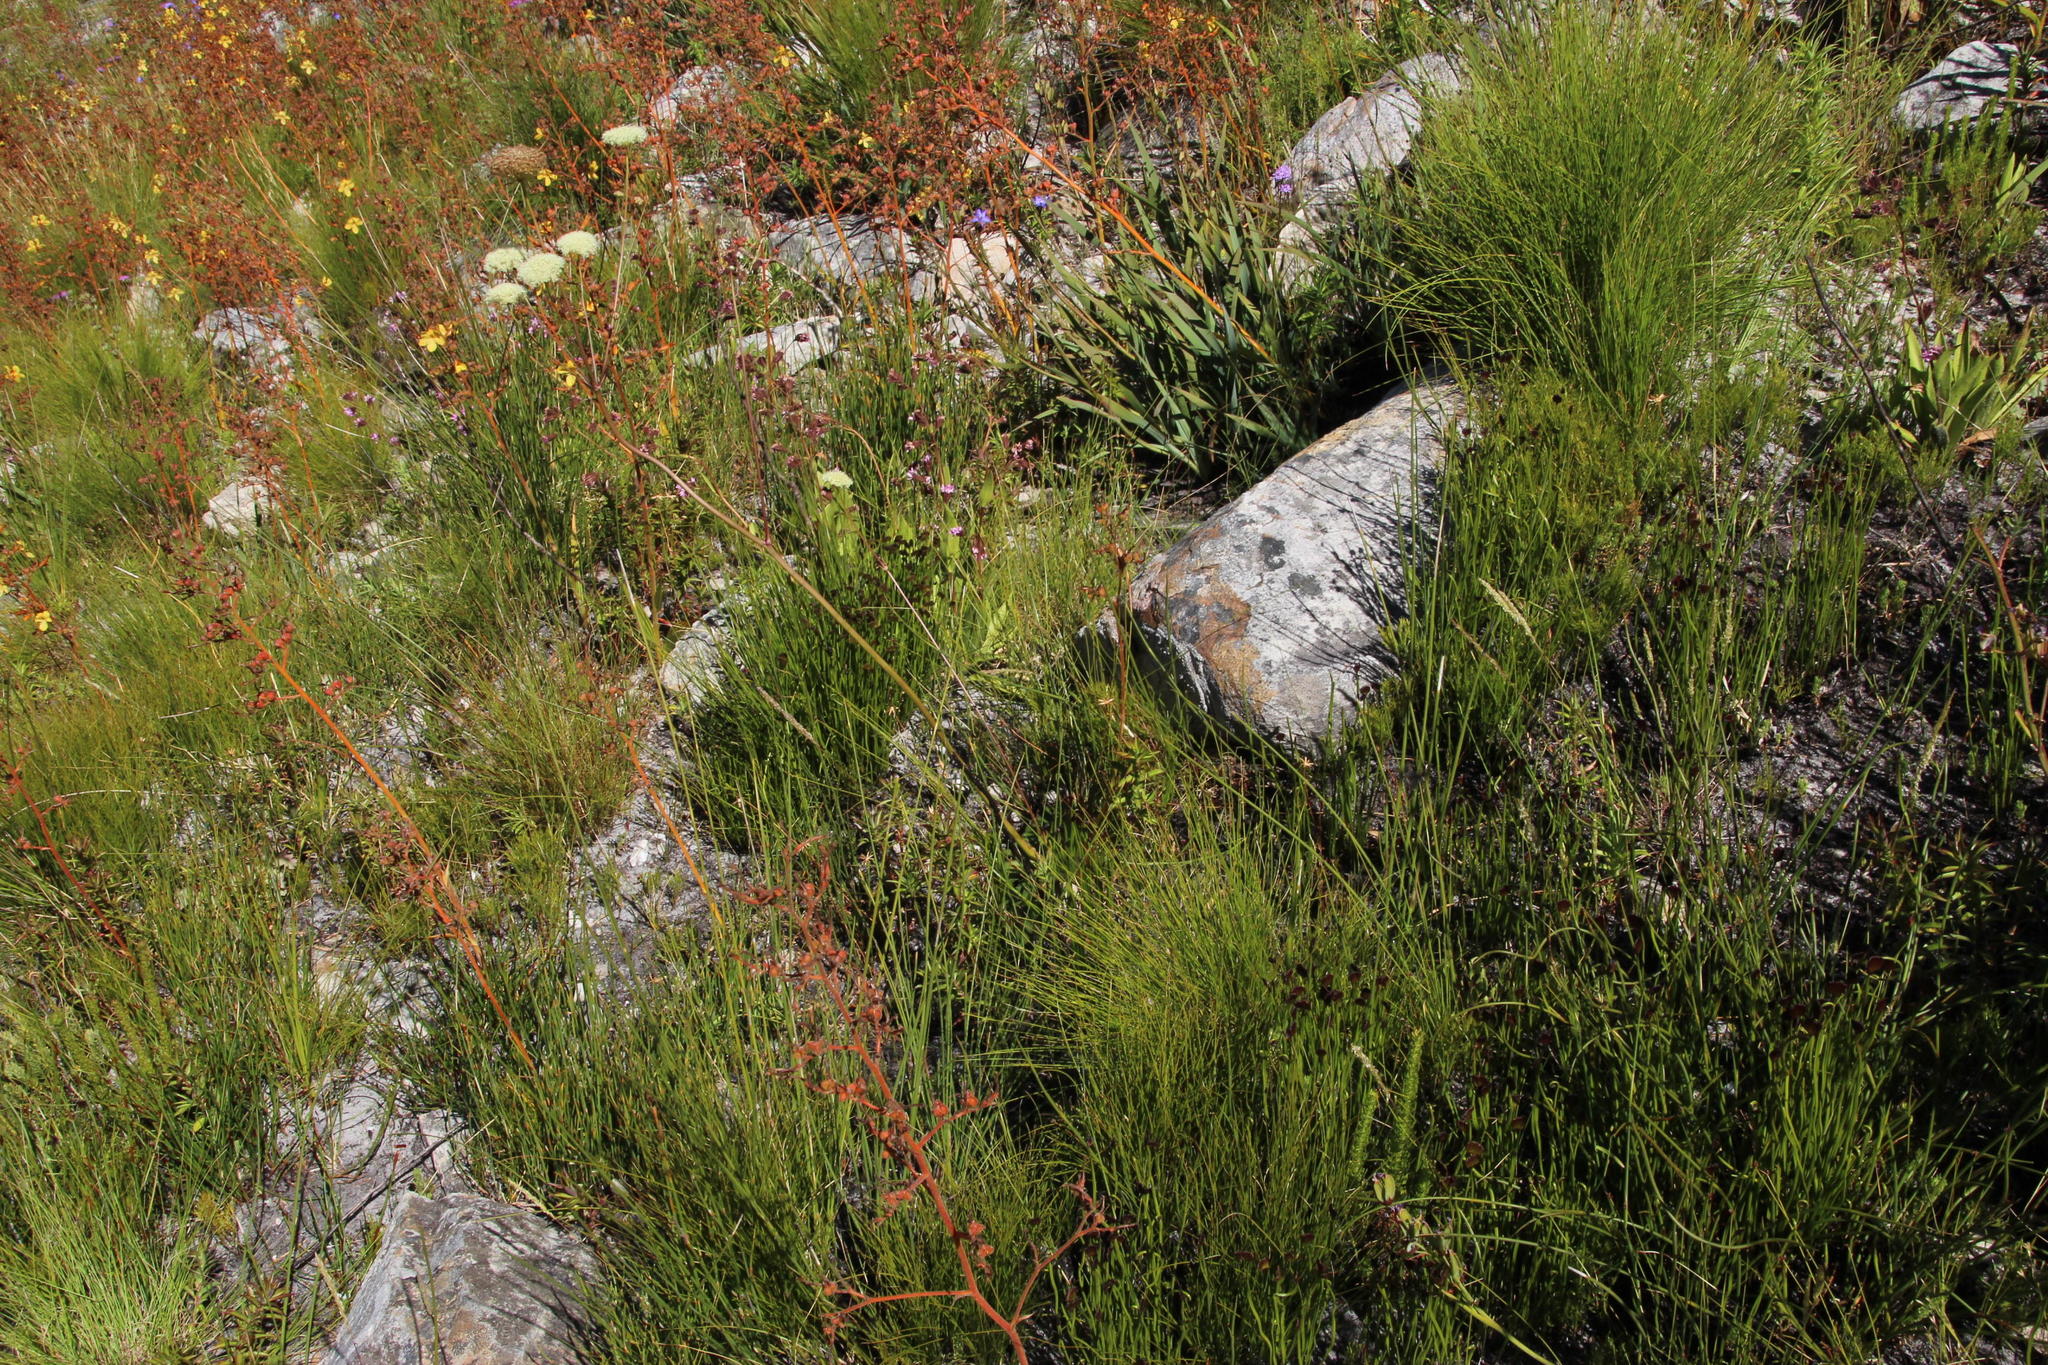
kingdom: Plantae
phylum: Tracheophyta
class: Liliopsida
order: Commelinales
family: Haemodoraceae
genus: Wachendorfia
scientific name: Wachendorfia paniculata
